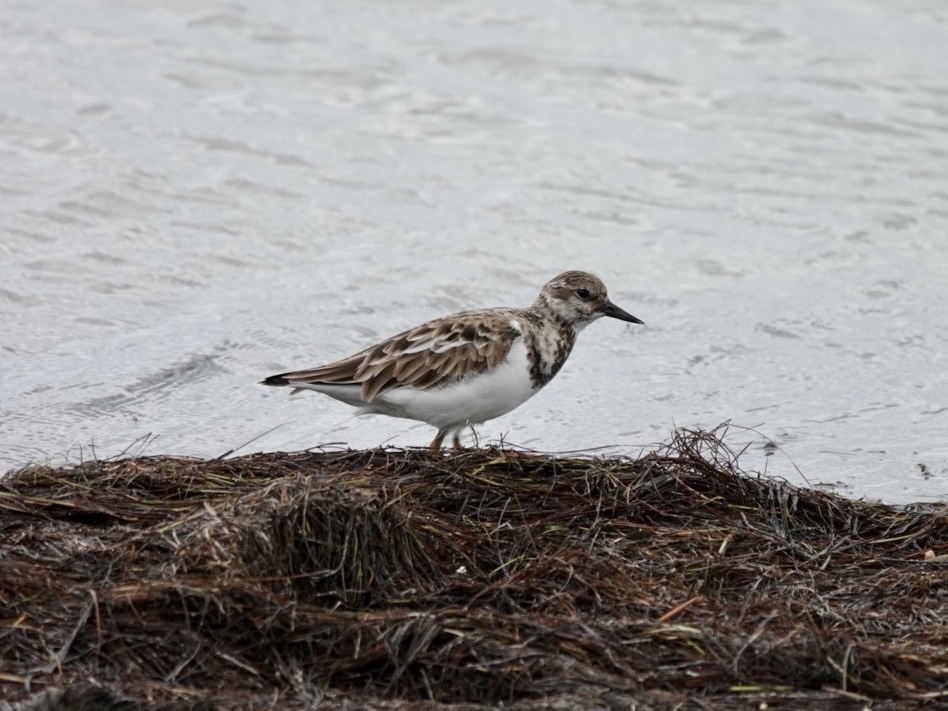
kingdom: Animalia
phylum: Chordata
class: Aves
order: Charadriiformes
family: Scolopacidae
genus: Arenaria
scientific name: Arenaria interpres
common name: Ruddy turnstone
